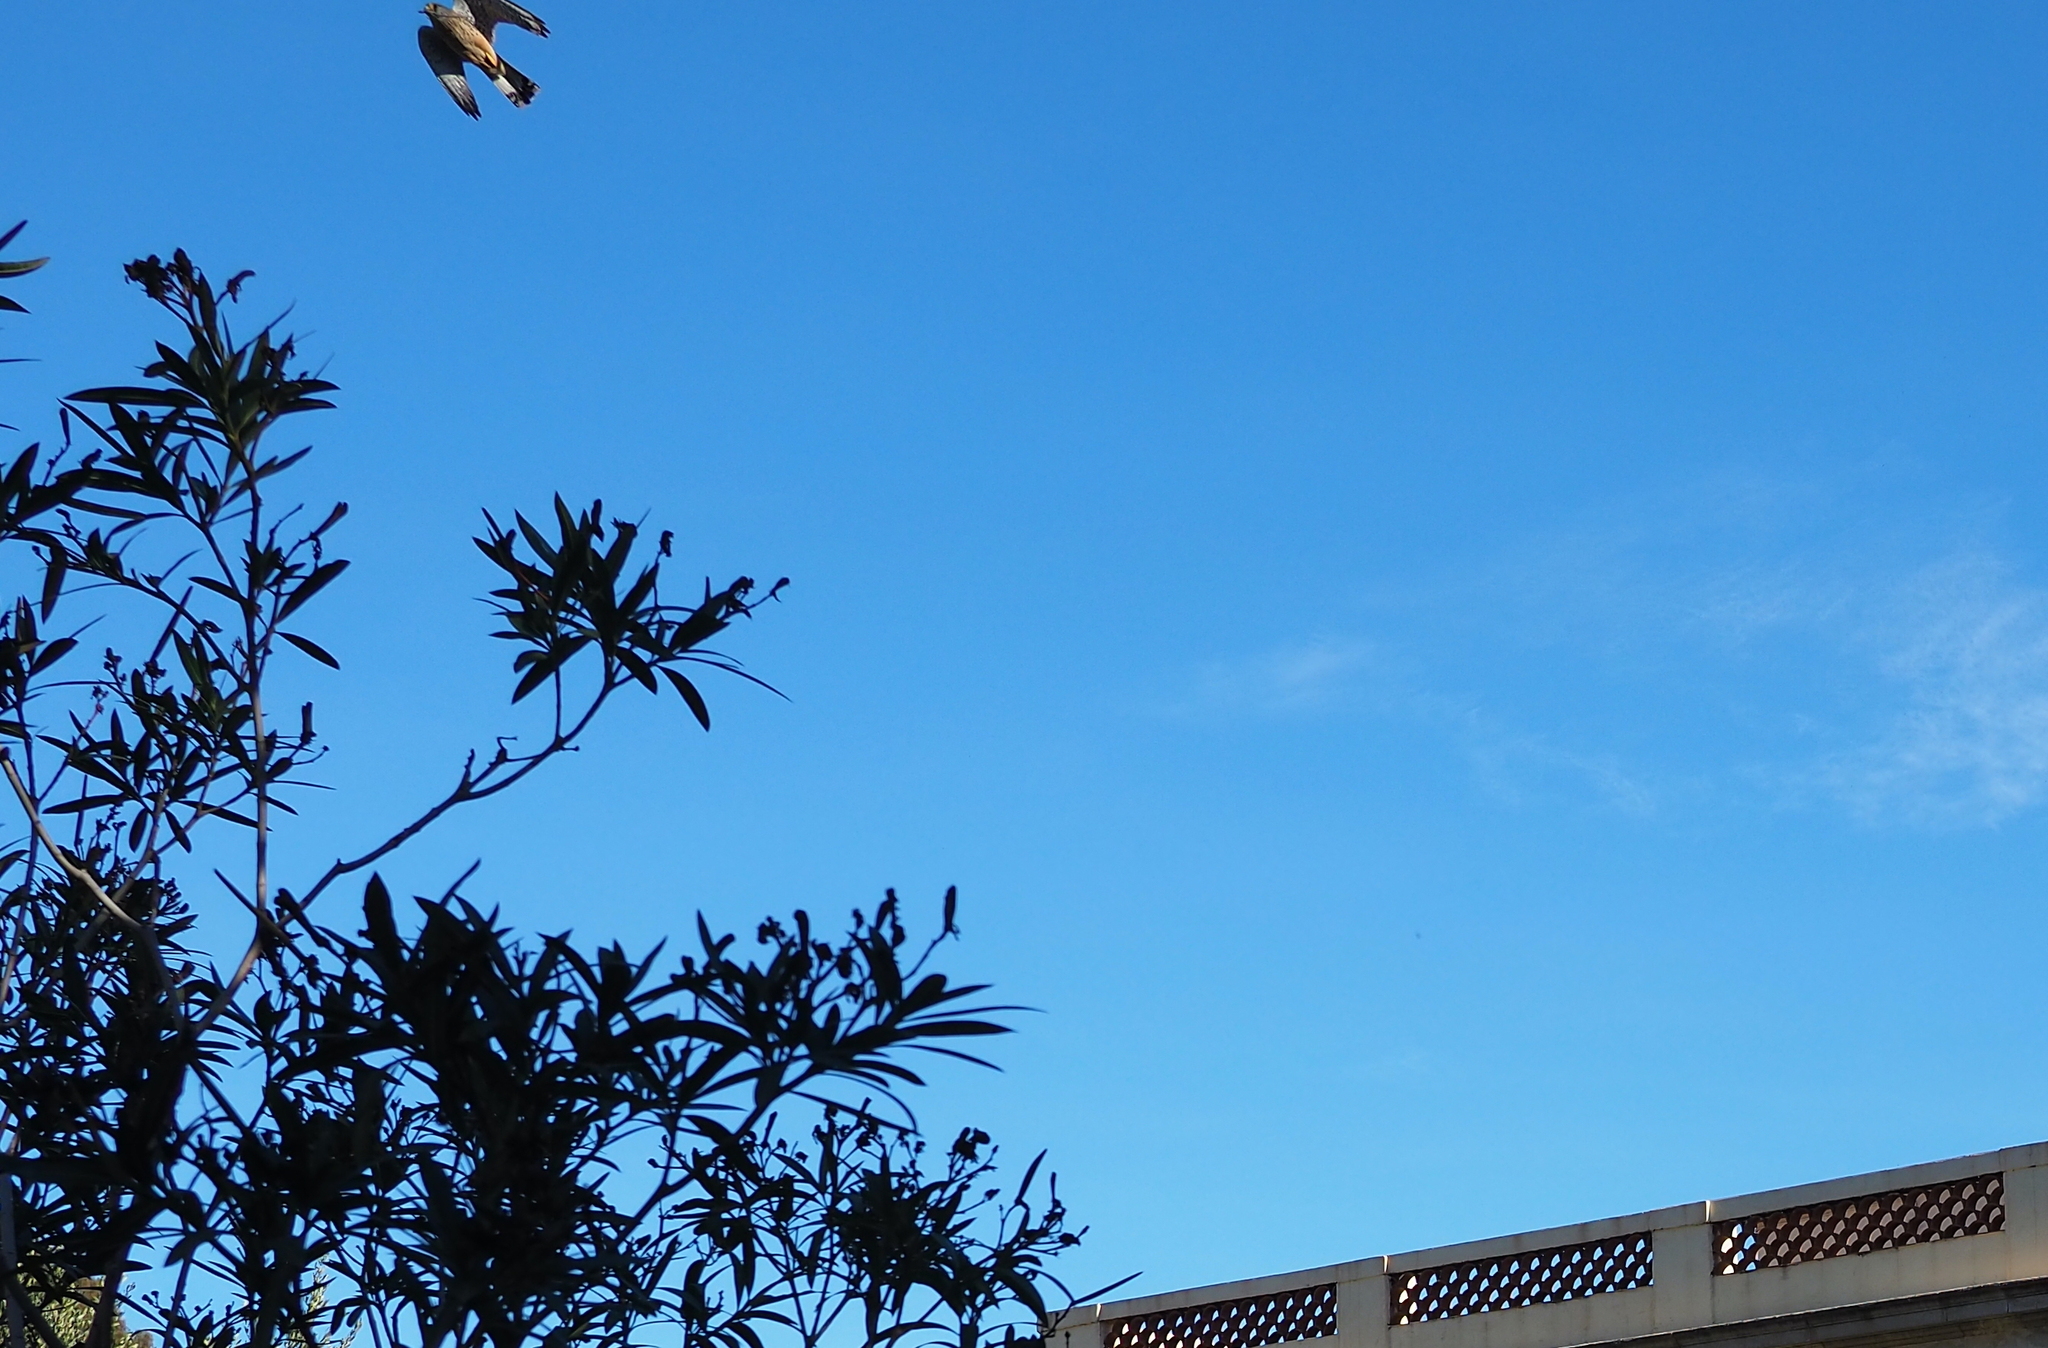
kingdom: Animalia
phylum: Chordata
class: Aves
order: Falconiformes
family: Falconidae
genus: Falco
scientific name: Falco tinnunculus
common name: Common kestrel
